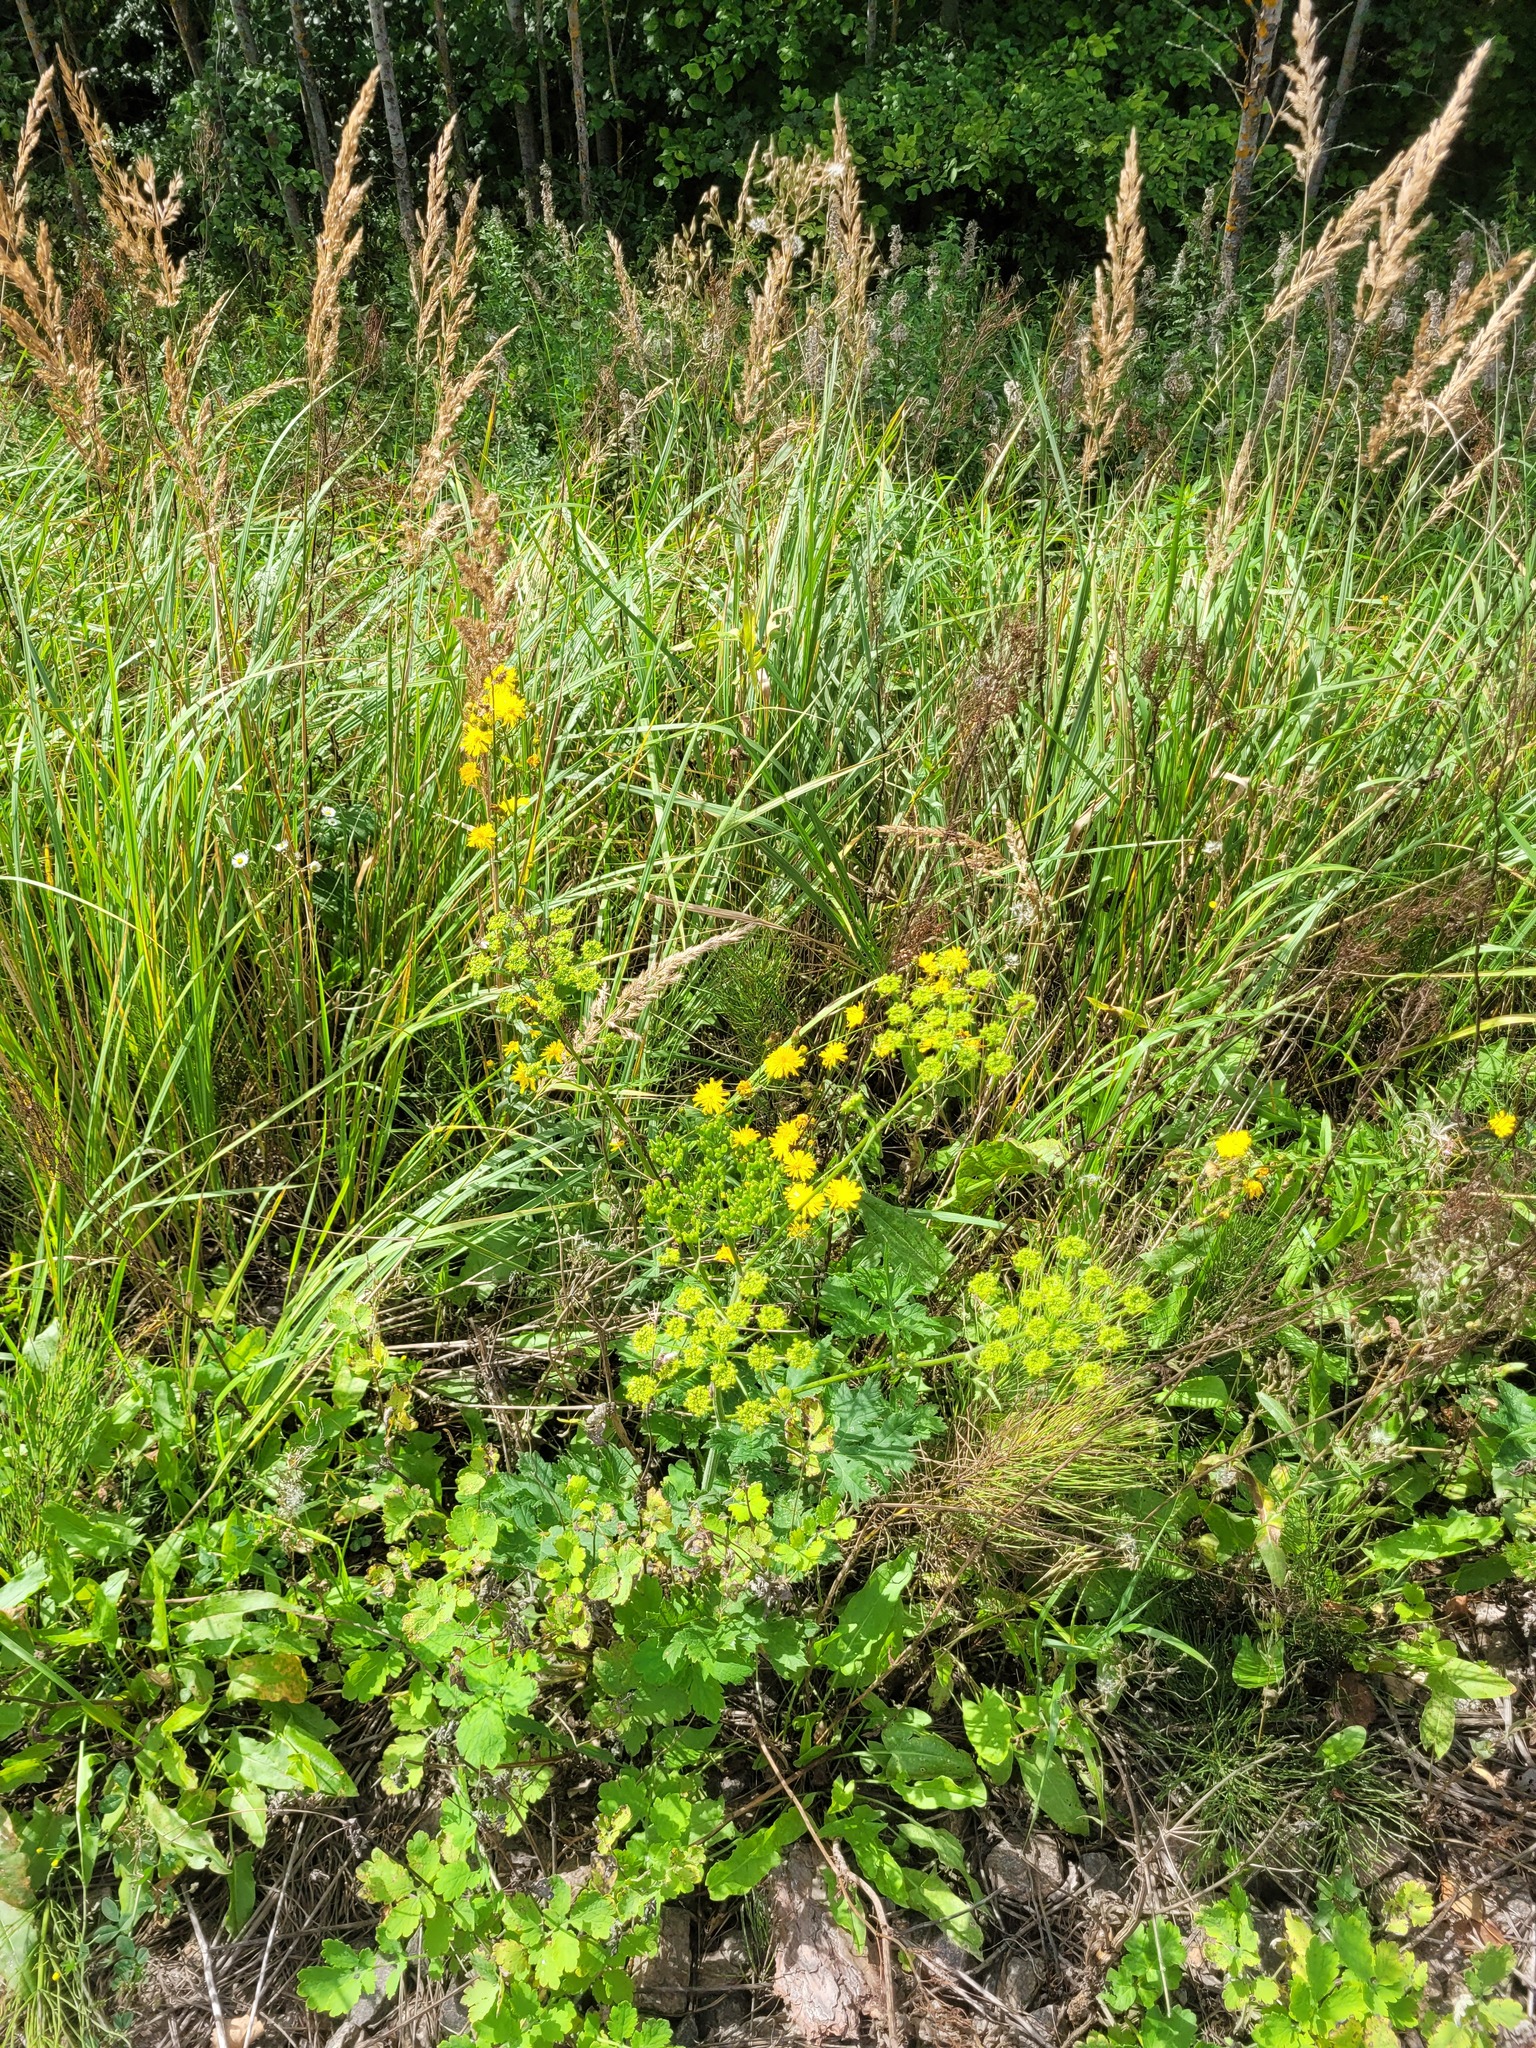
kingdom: Plantae
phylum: Tracheophyta
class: Magnoliopsida
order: Apiales
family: Apiaceae
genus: Heracleum
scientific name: Heracleum sphondylium
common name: Hogweed
